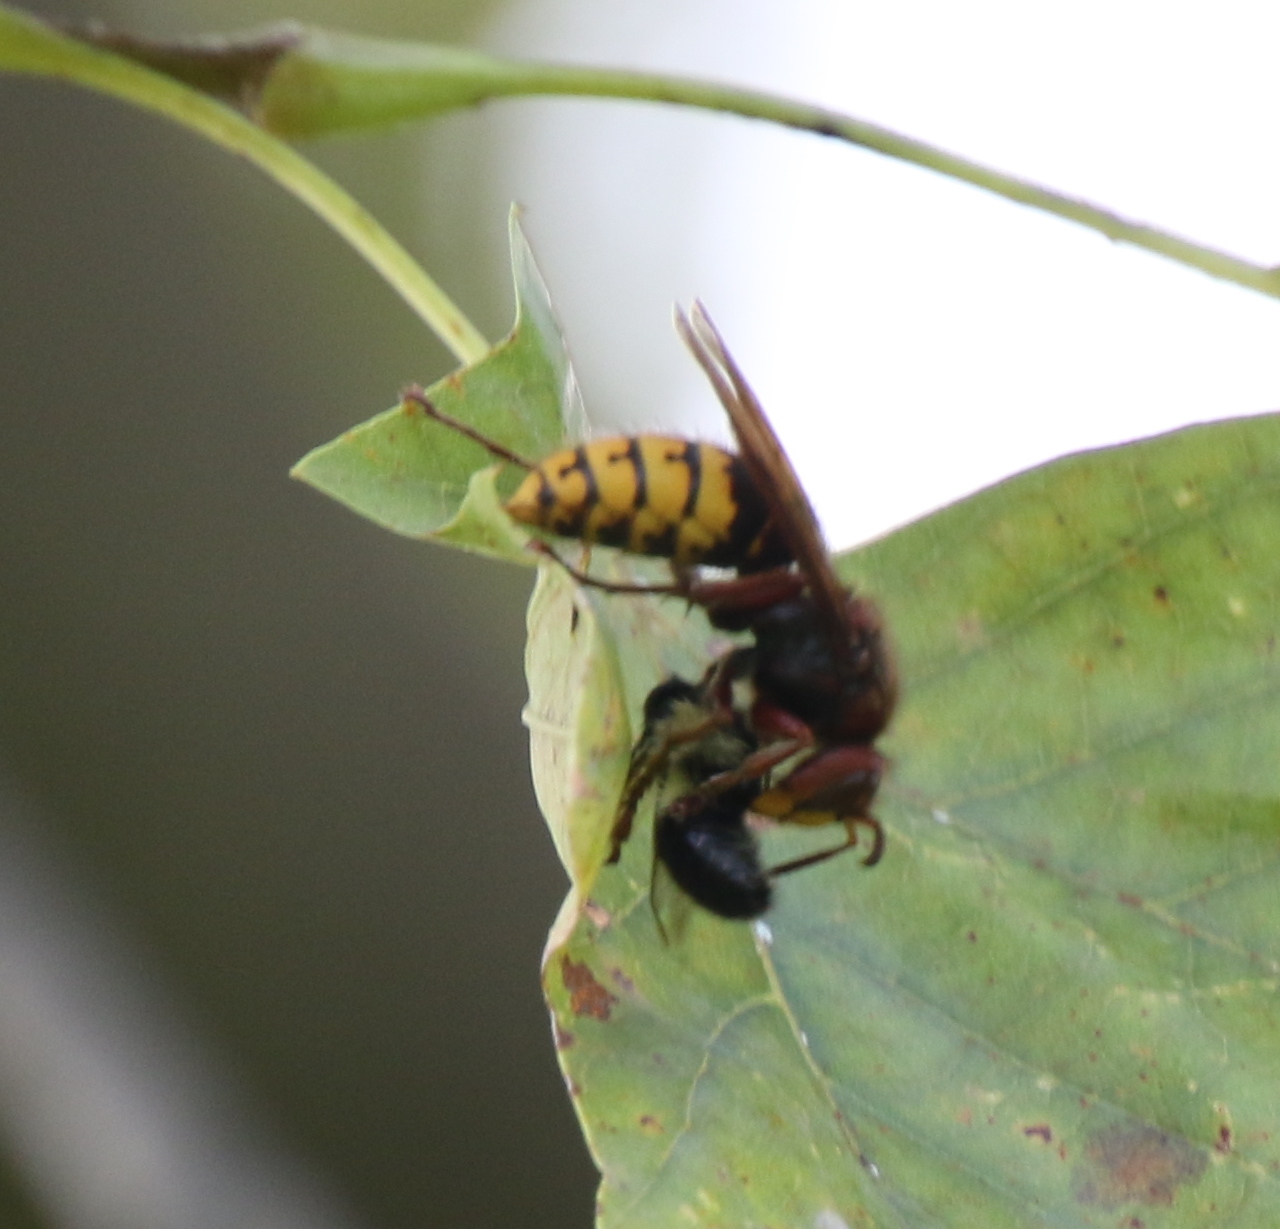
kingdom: Animalia
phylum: Arthropoda
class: Insecta
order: Hymenoptera
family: Vespidae
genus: Vespa
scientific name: Vespa crabro
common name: Hornet
